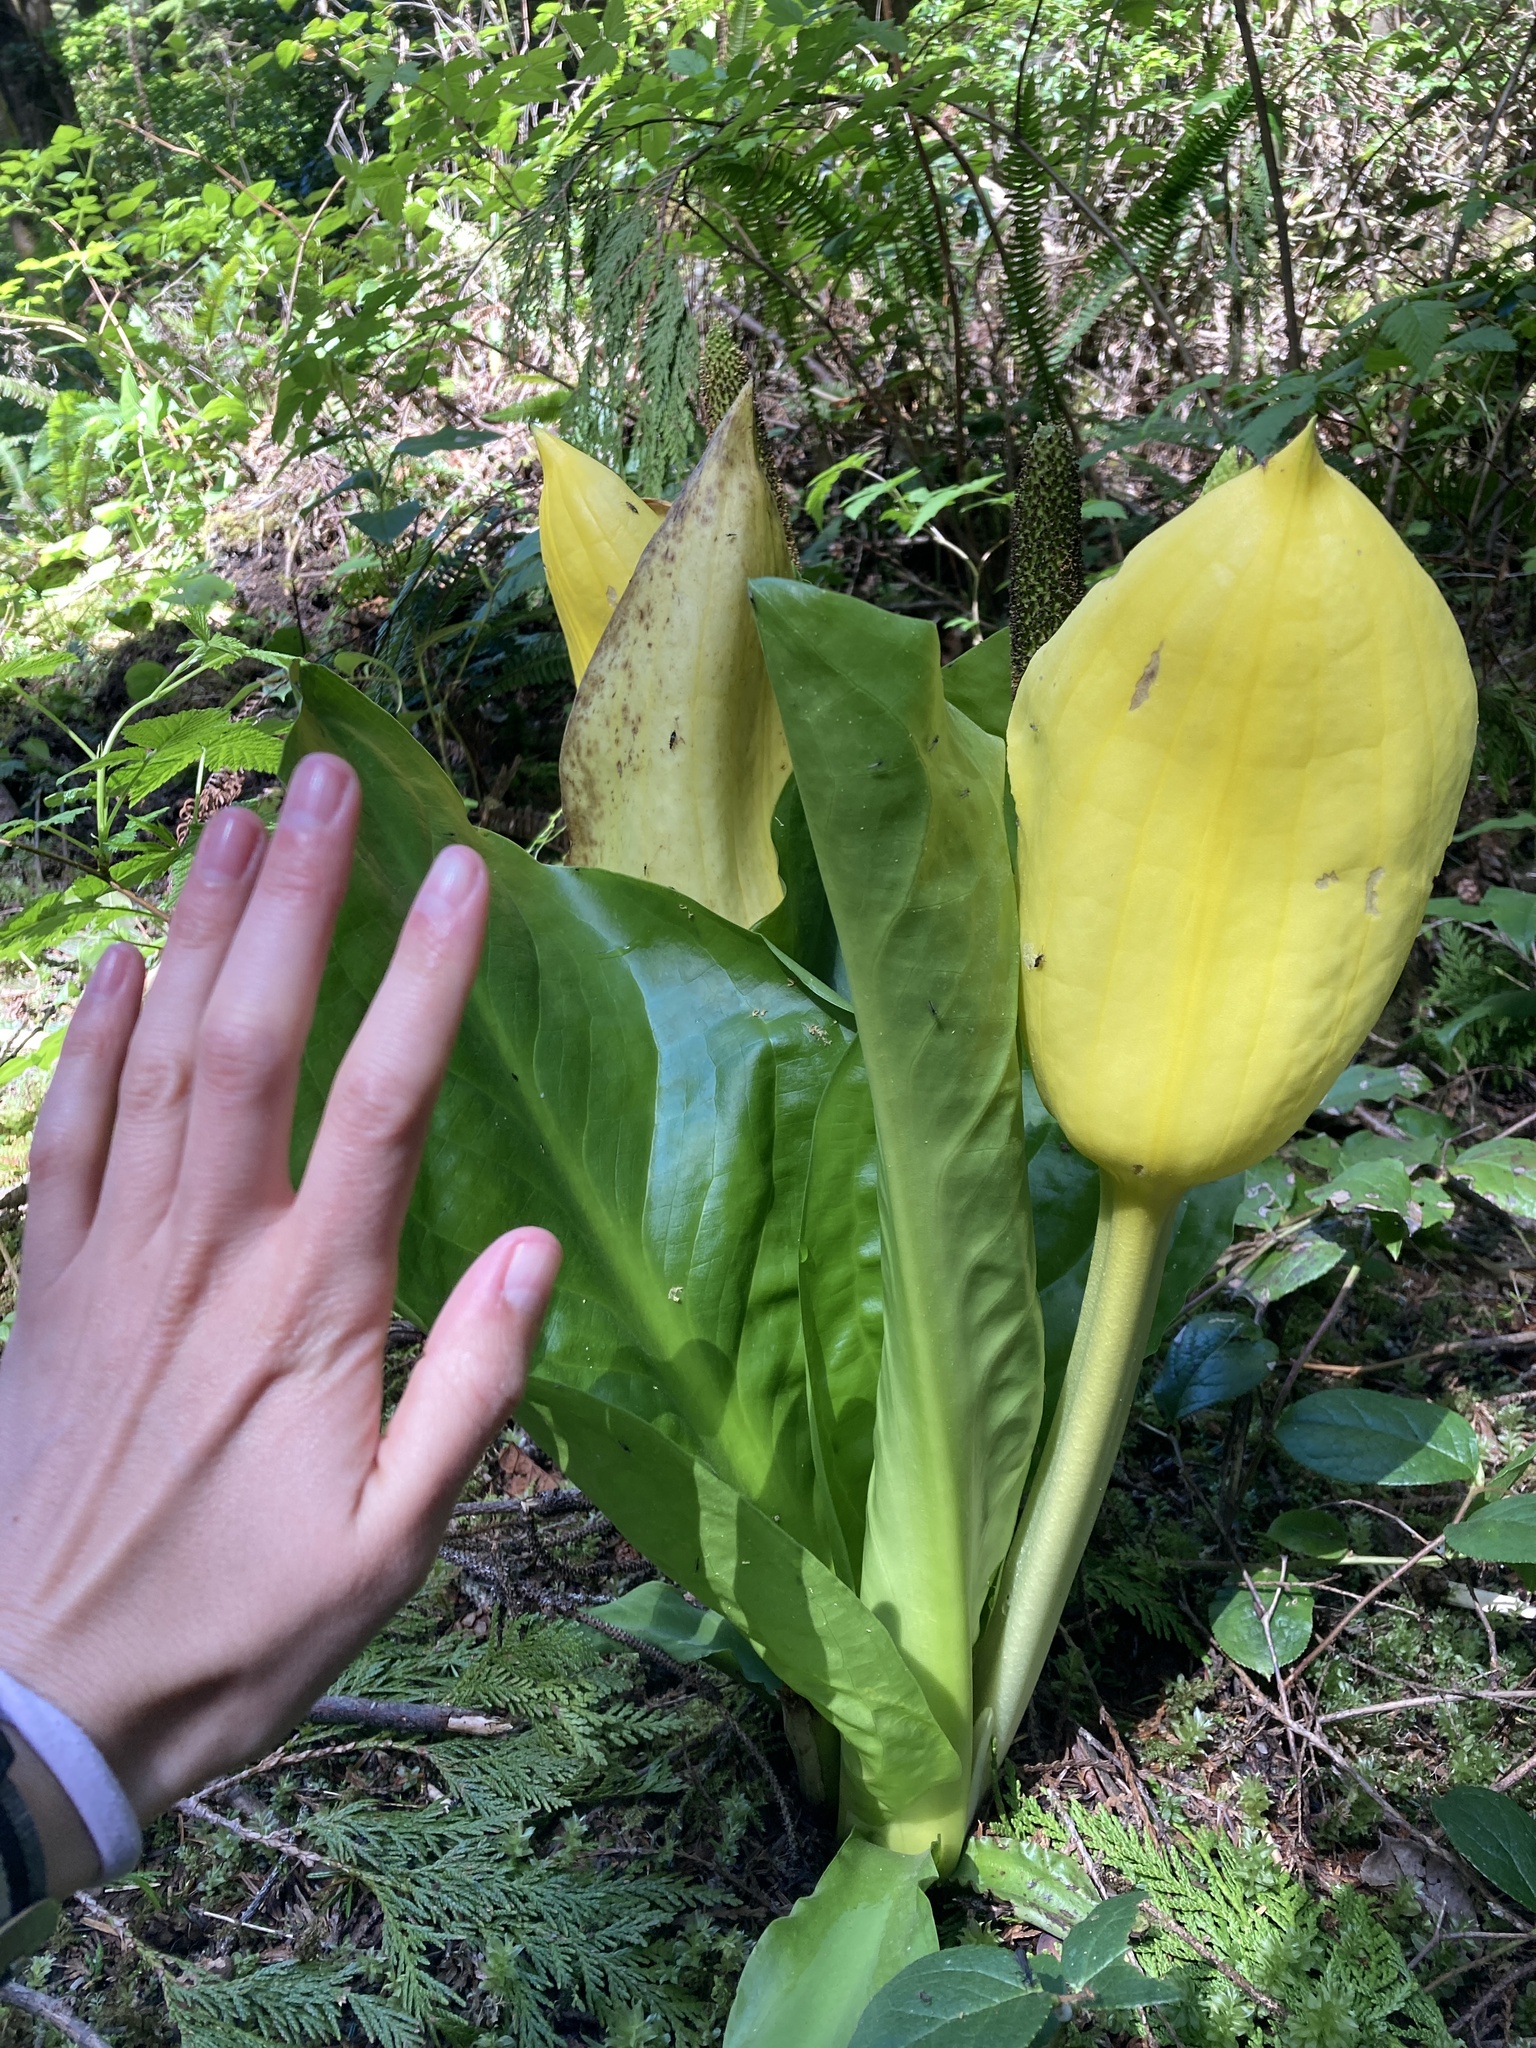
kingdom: Plantae
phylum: Tracheophyta
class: Liliopsida
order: Alismatales
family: Araceae
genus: Lysichiton
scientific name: Lysichiton americanus
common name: American skunk cabbage
